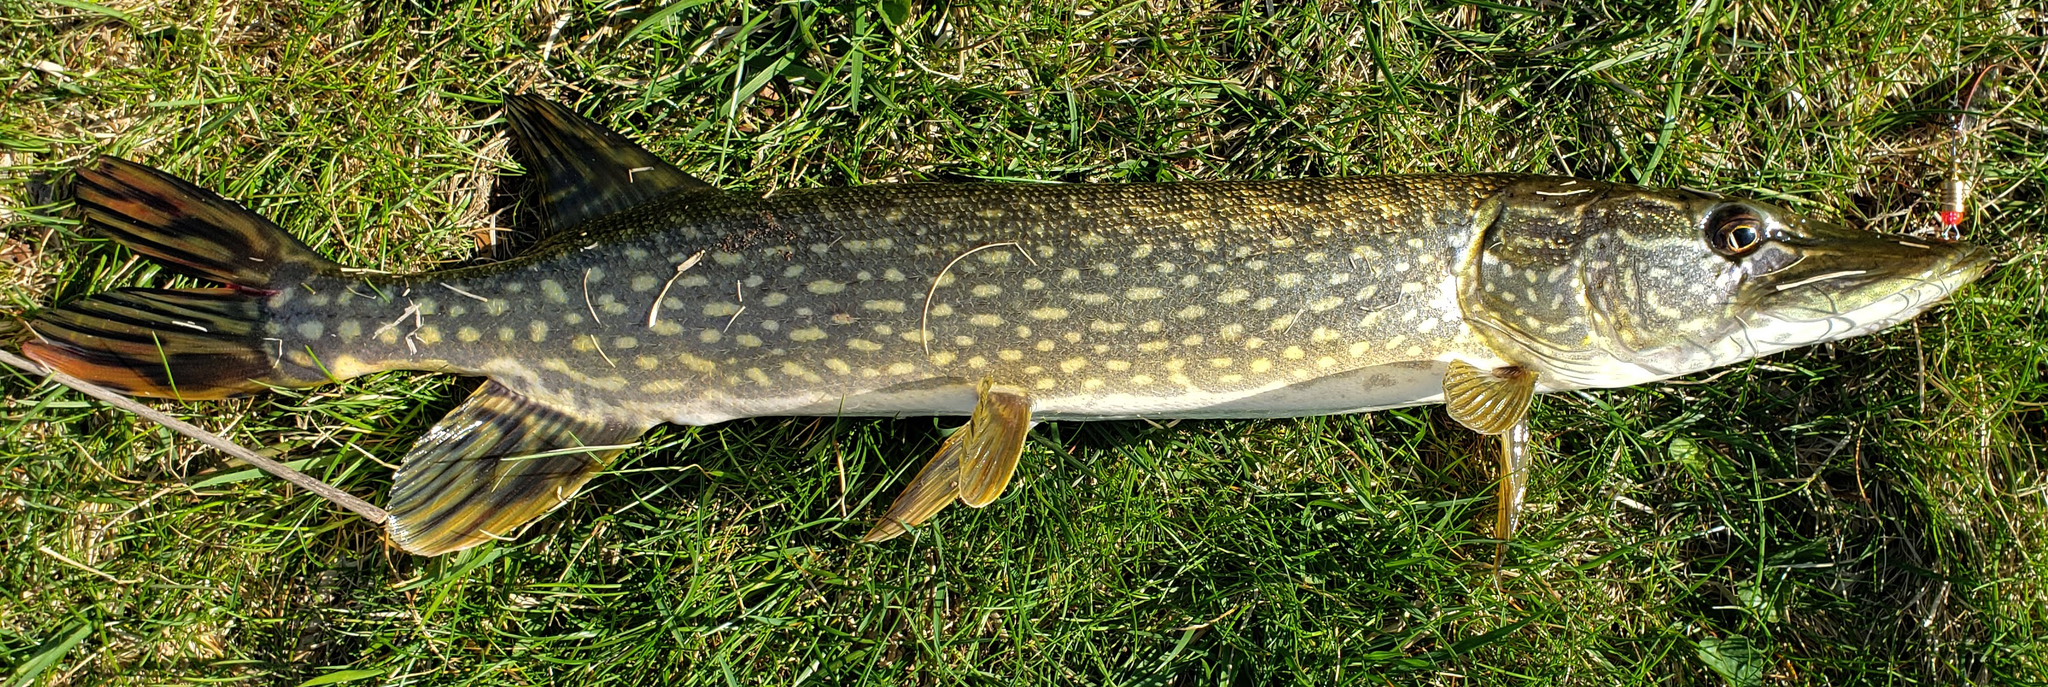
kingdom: Animalia
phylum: Chordata
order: Esociformes
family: Esocidae
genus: Esox
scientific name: Esox lucius
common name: Northern pike
